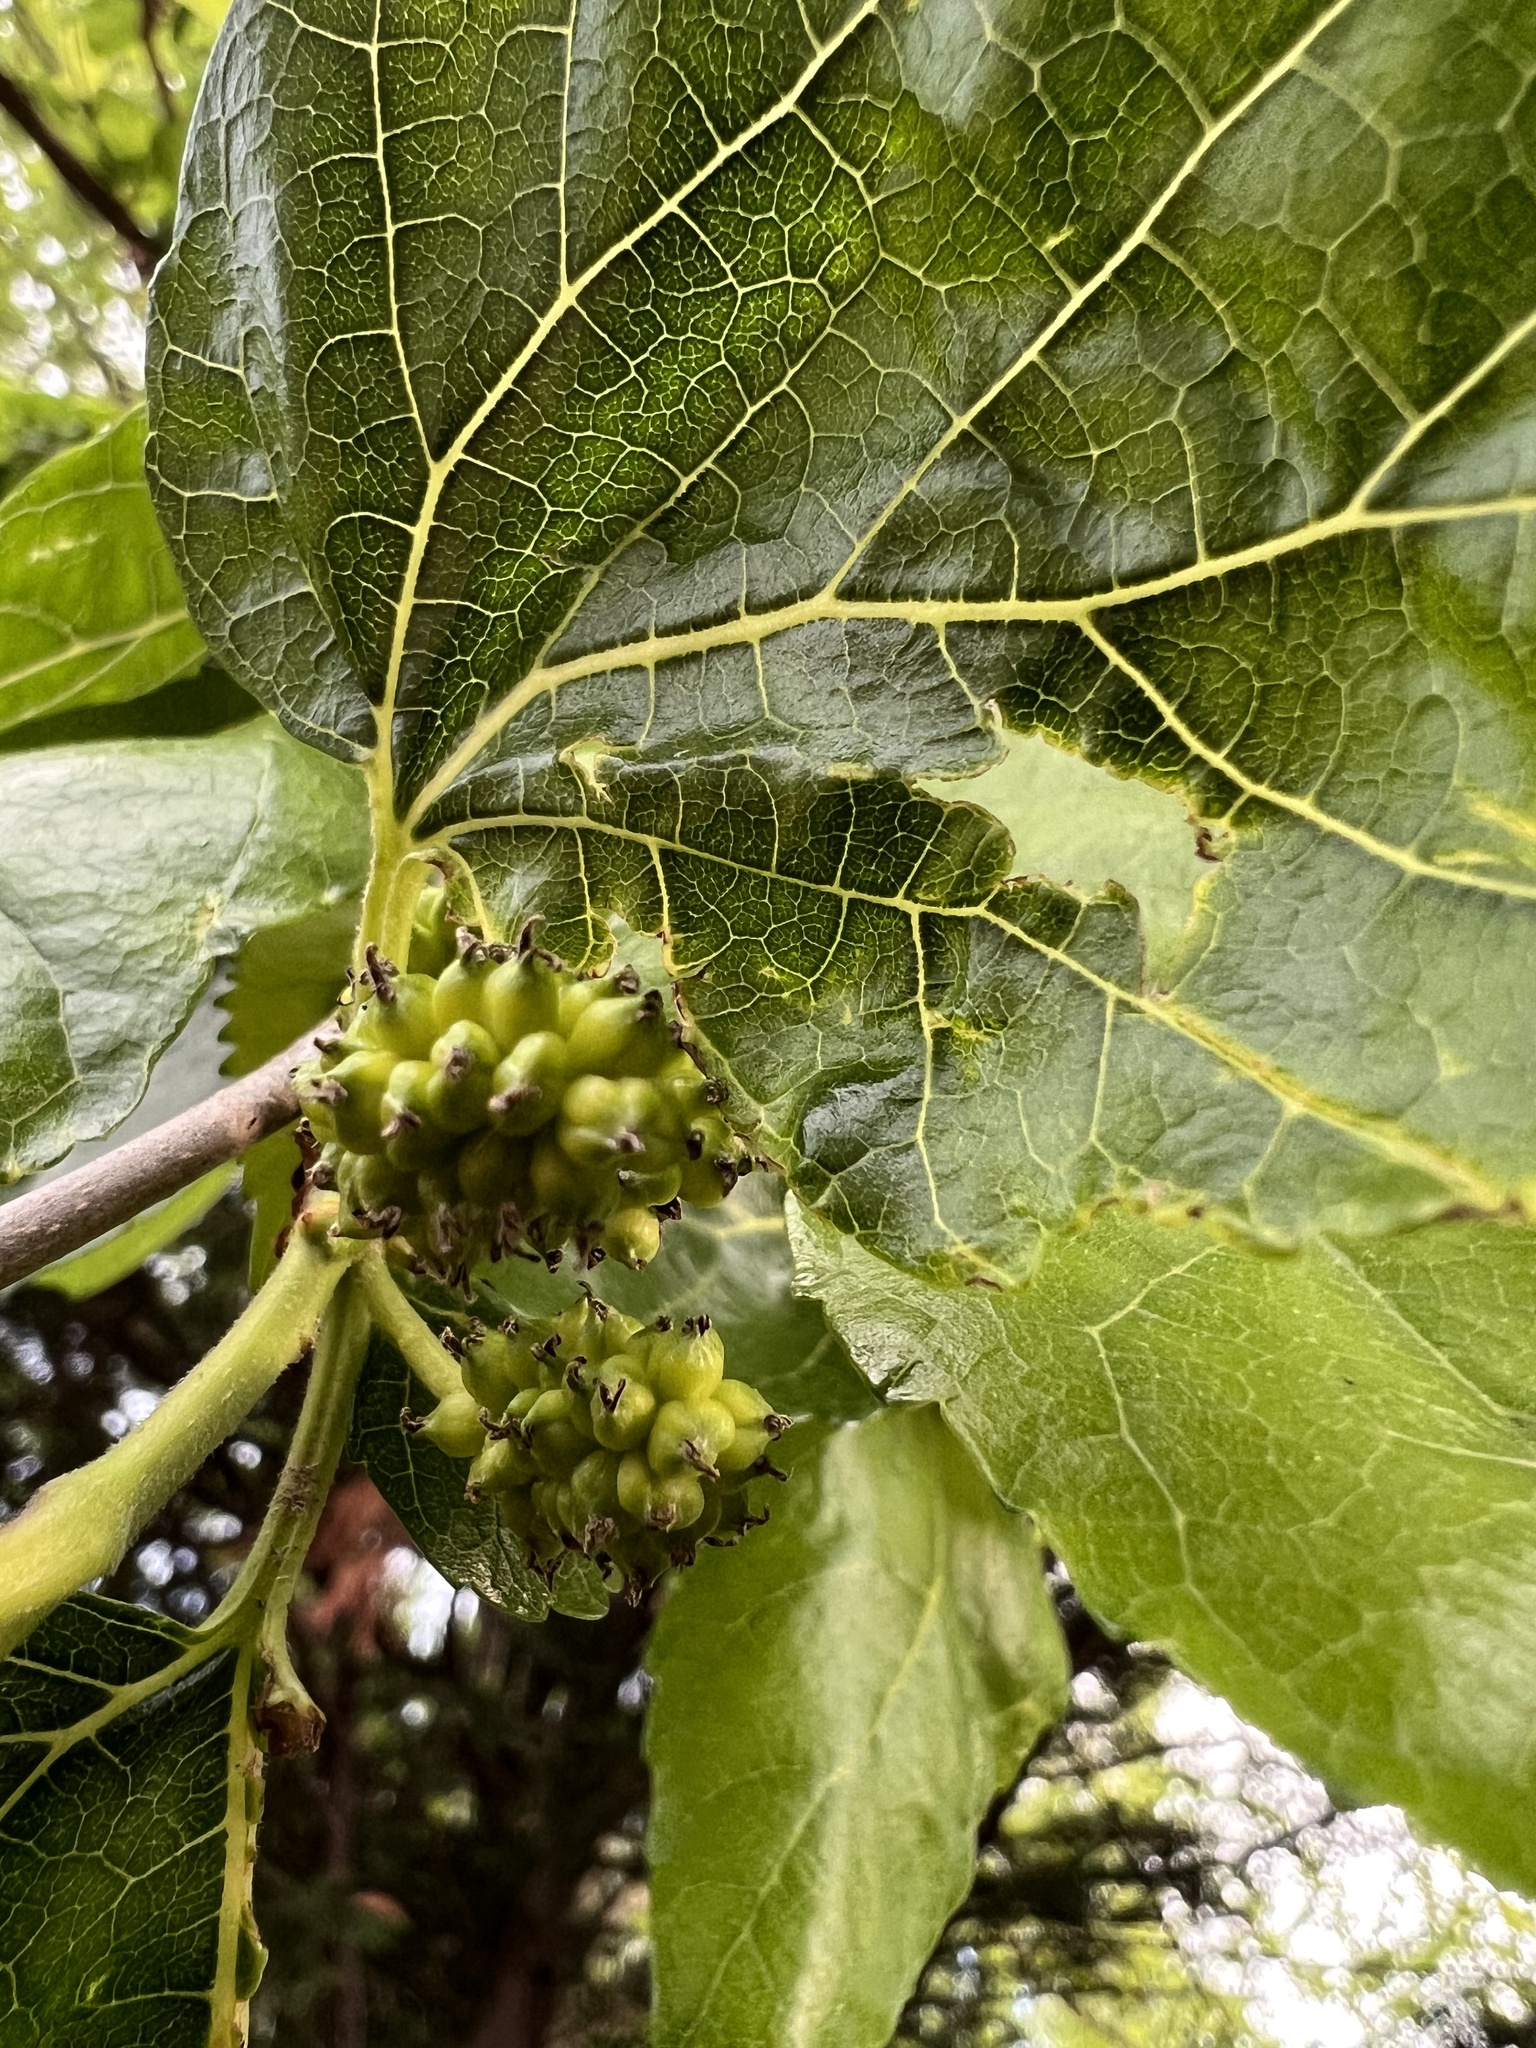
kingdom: Plantae
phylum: Tracheophyta
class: Magnoliopsida
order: Rosales
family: Moraceae
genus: Morus
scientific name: Morus alba
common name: White mulberry
